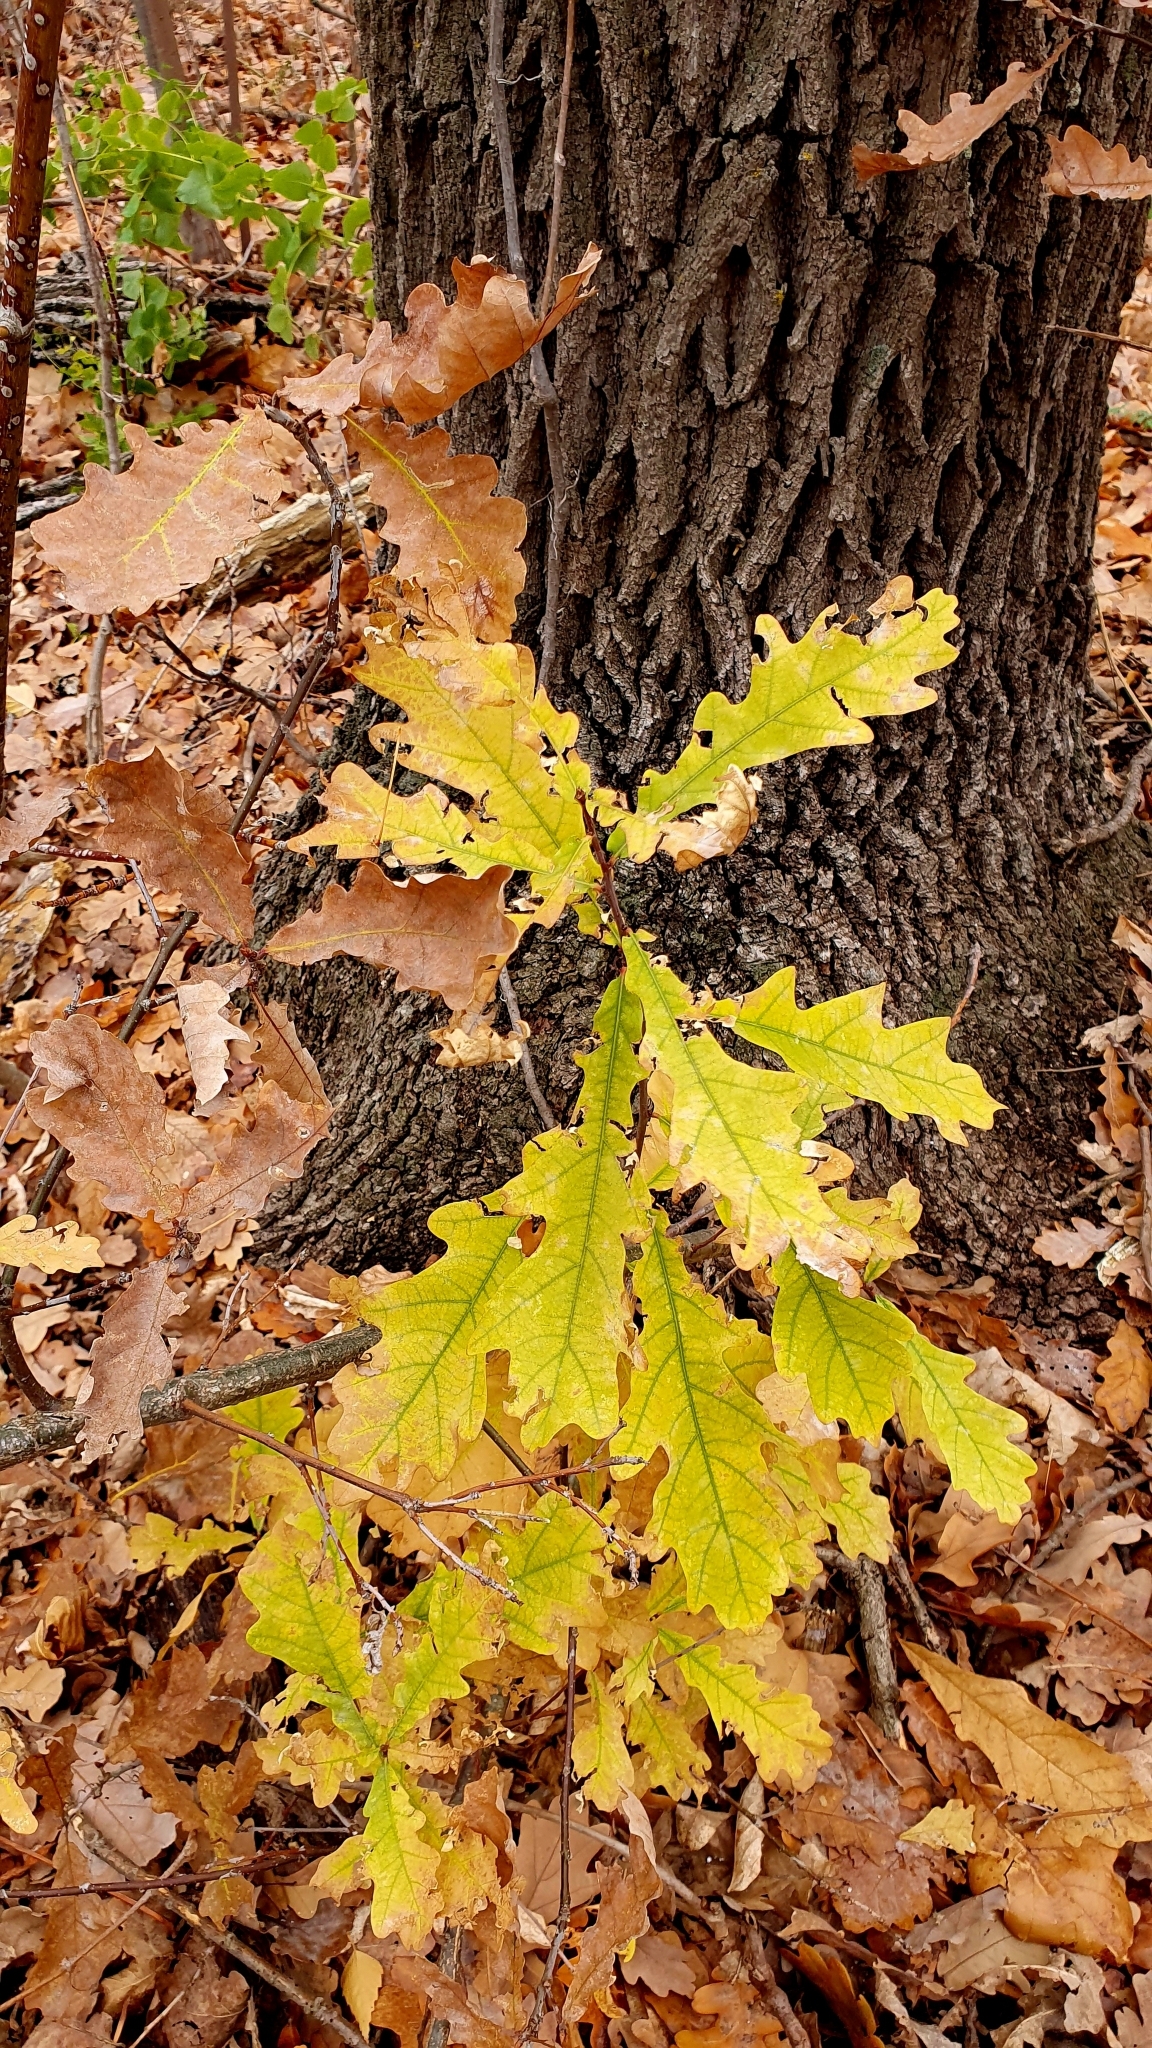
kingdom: Plantae
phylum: Tracheophyta
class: Magnoliopsida
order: Fagales
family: Fagaceae
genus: Quercus
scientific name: Quercus robur
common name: Pedunculate oak
